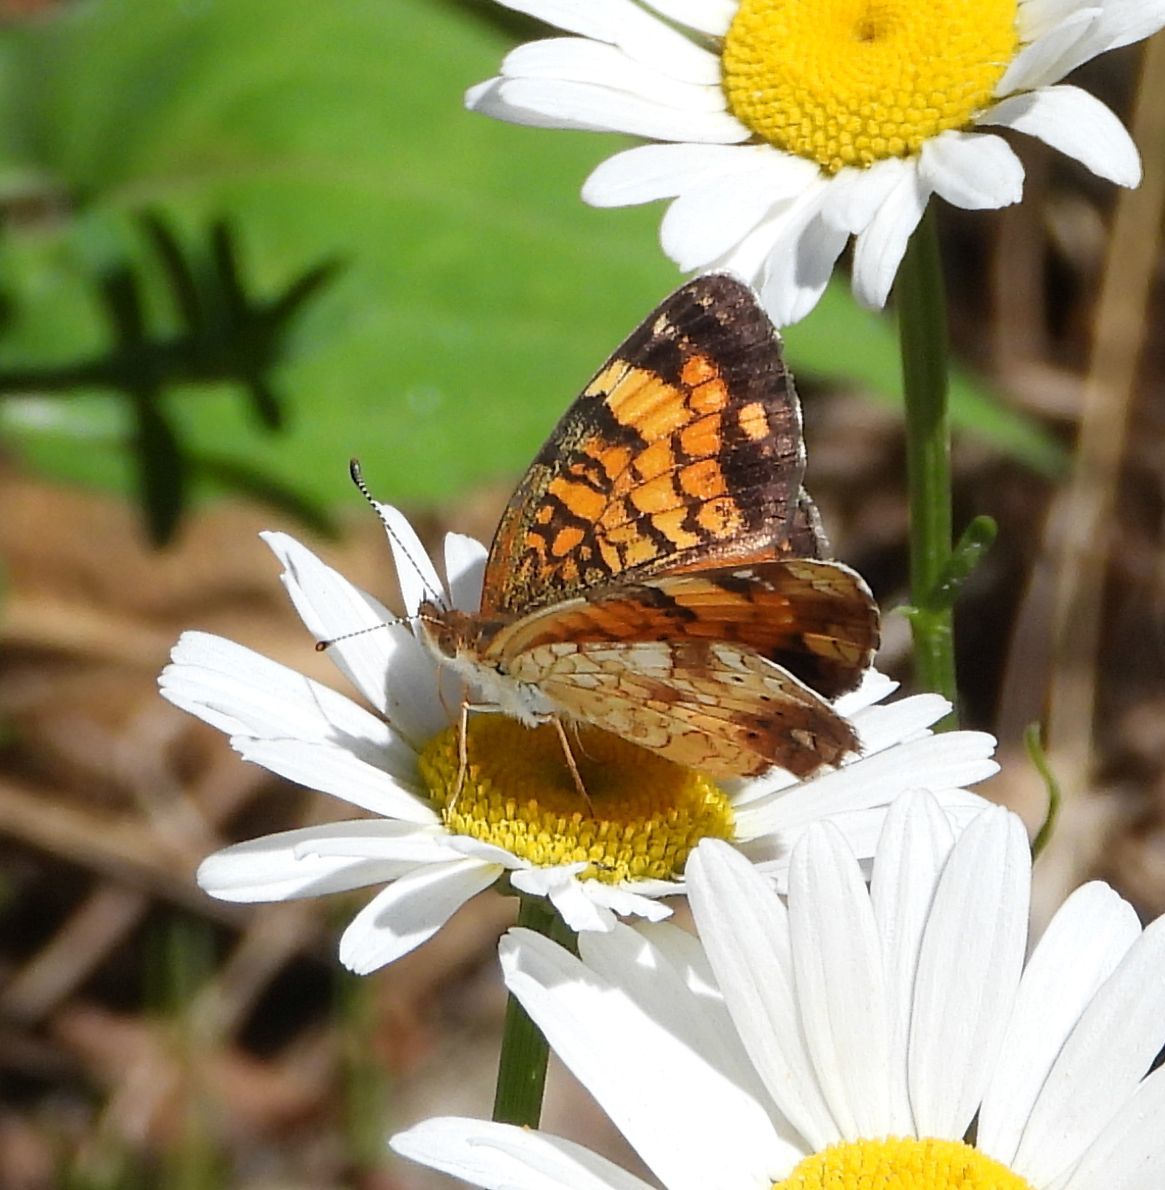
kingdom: Animalia
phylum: Arthropoda
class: Insecta
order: Lepidoptera
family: Nymphalidae
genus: Phyciodes
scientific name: Phyciodes tharos
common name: Pearl crescent
